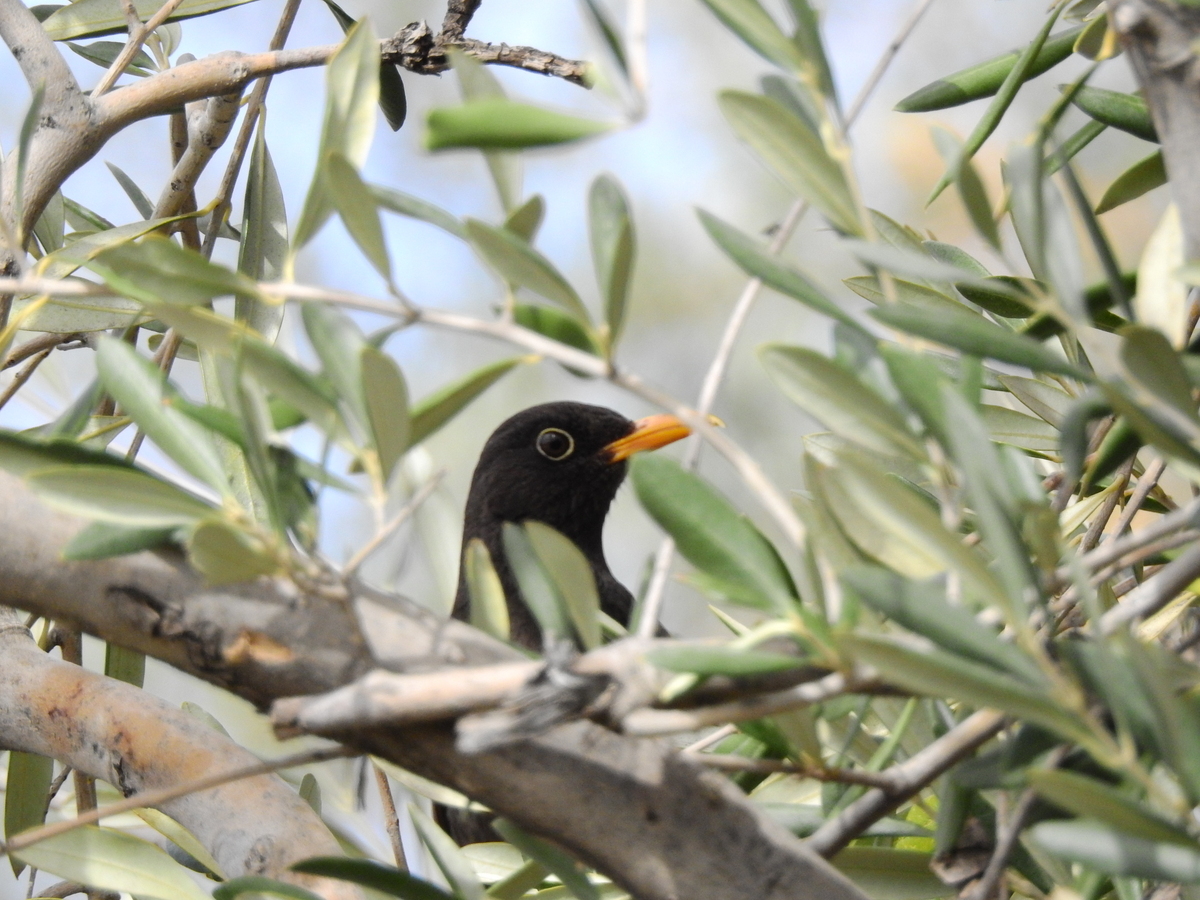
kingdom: Animalia
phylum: Chordata
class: Aves
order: Passeriformes
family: Turdidae
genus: Turdus
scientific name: Turdus chiguanco
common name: Chiguanco thrush
